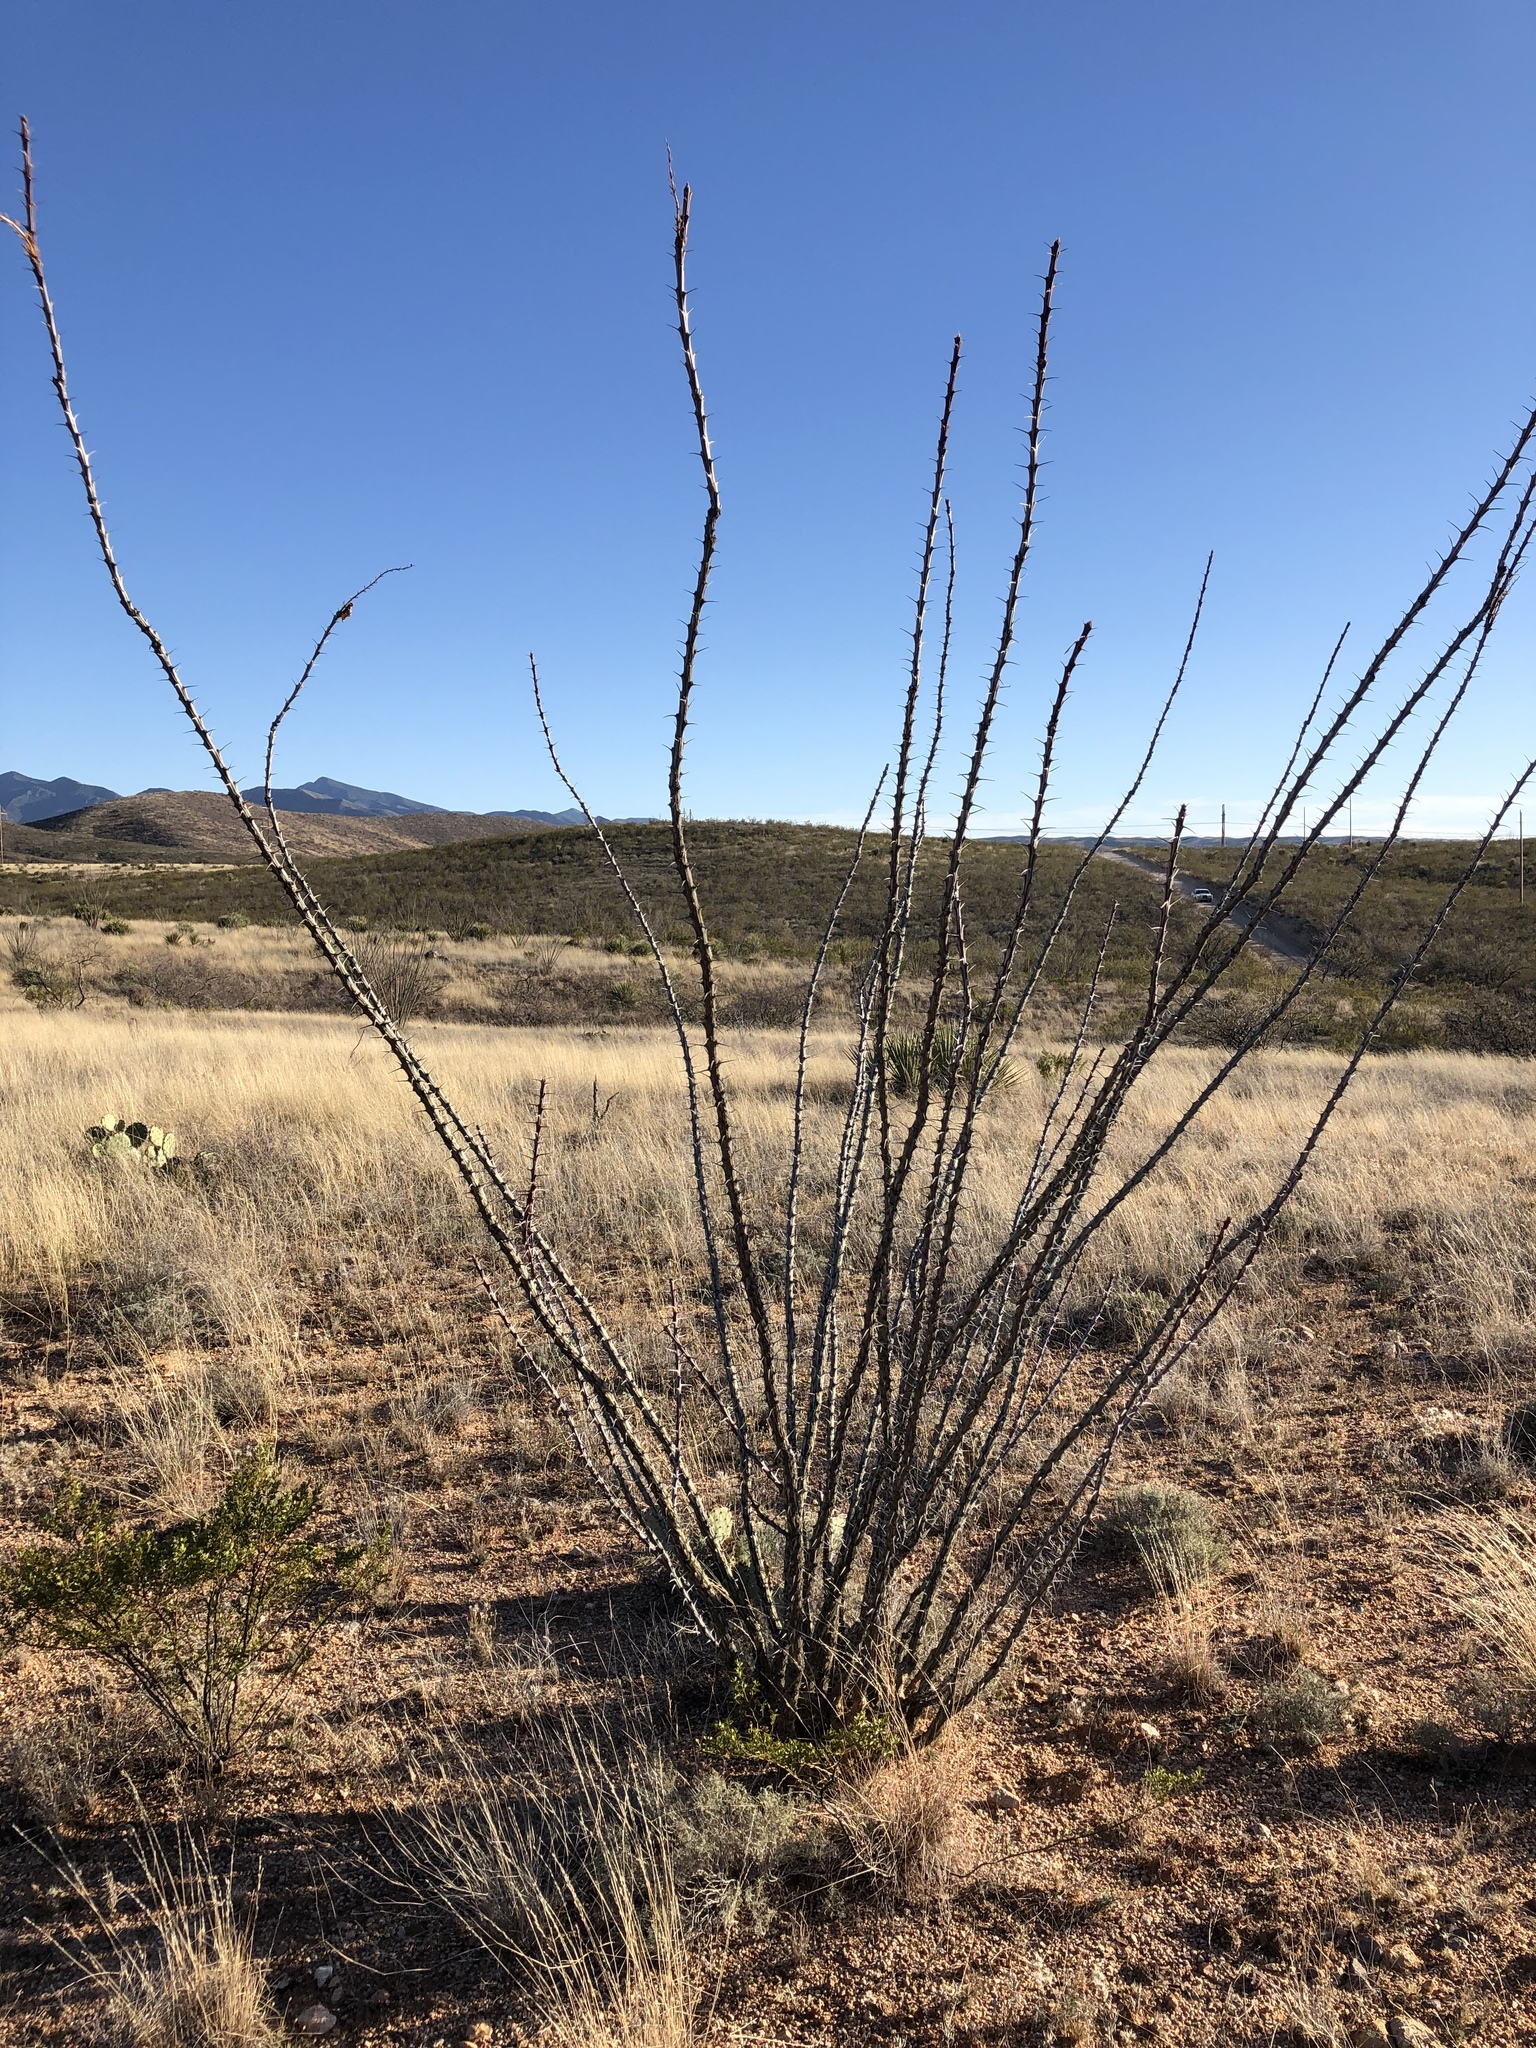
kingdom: Plantae
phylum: Tracheophyta
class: Magnoliopsida
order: Ericales
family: Fouquieriaceae
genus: Fouquieria
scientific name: Fouquieria splendens
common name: Vine-cactus
